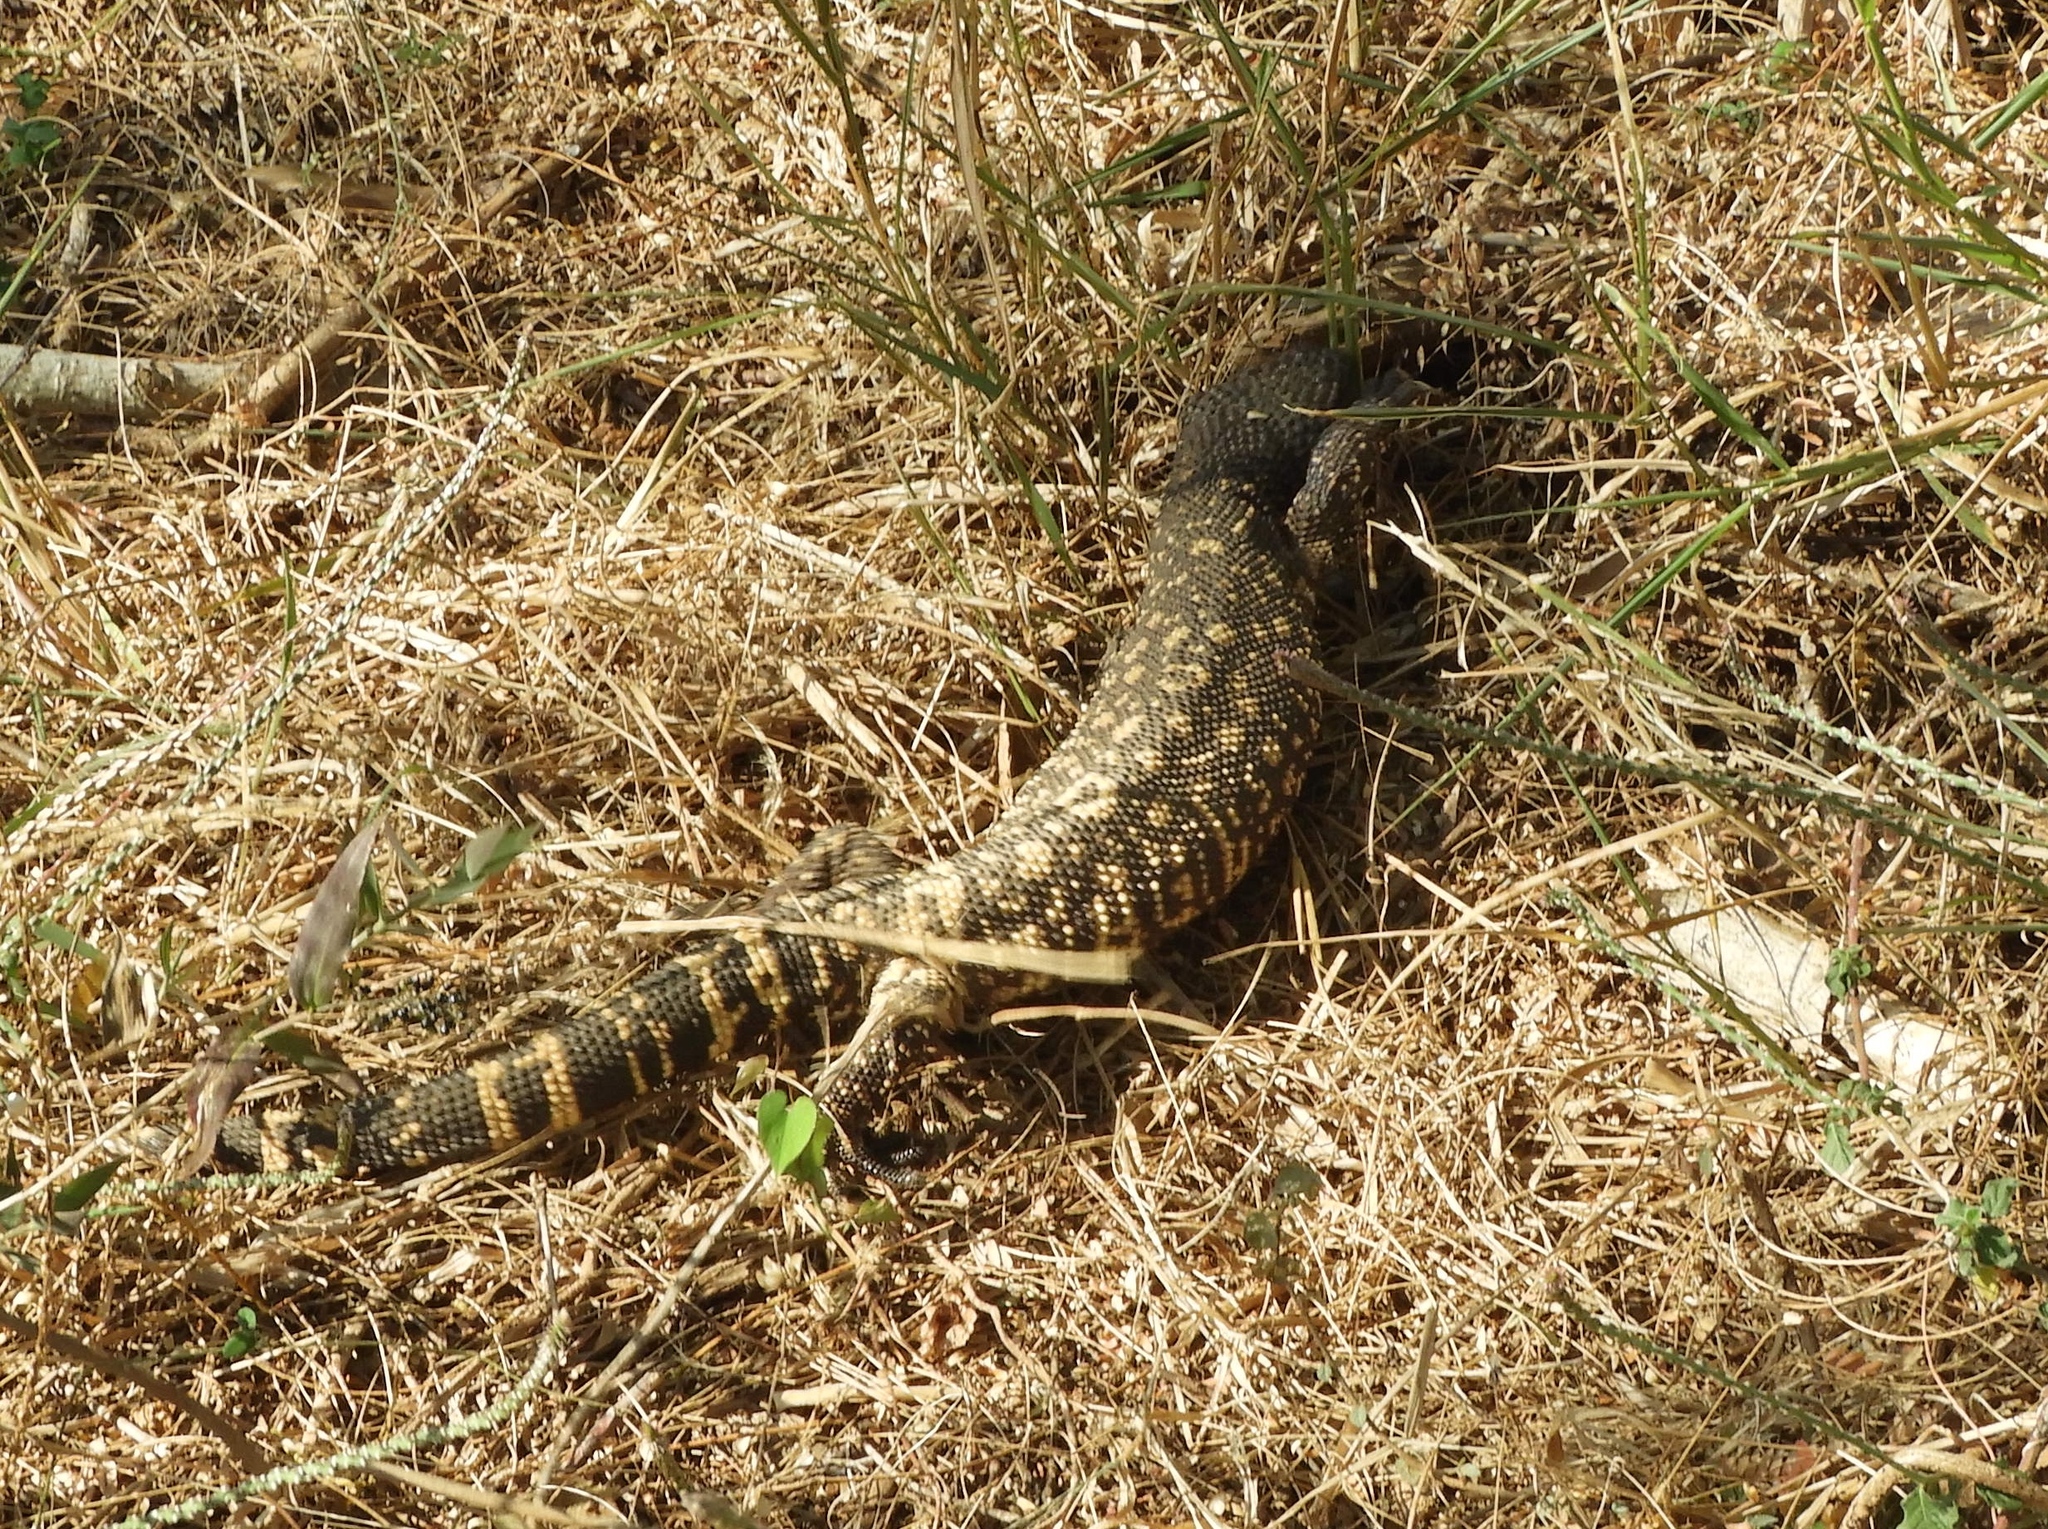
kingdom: Animalia
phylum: Chordata
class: Squamata
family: Helodermatidae
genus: Heloderma
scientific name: Heloderma horridum
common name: Mexican beaded lizard
